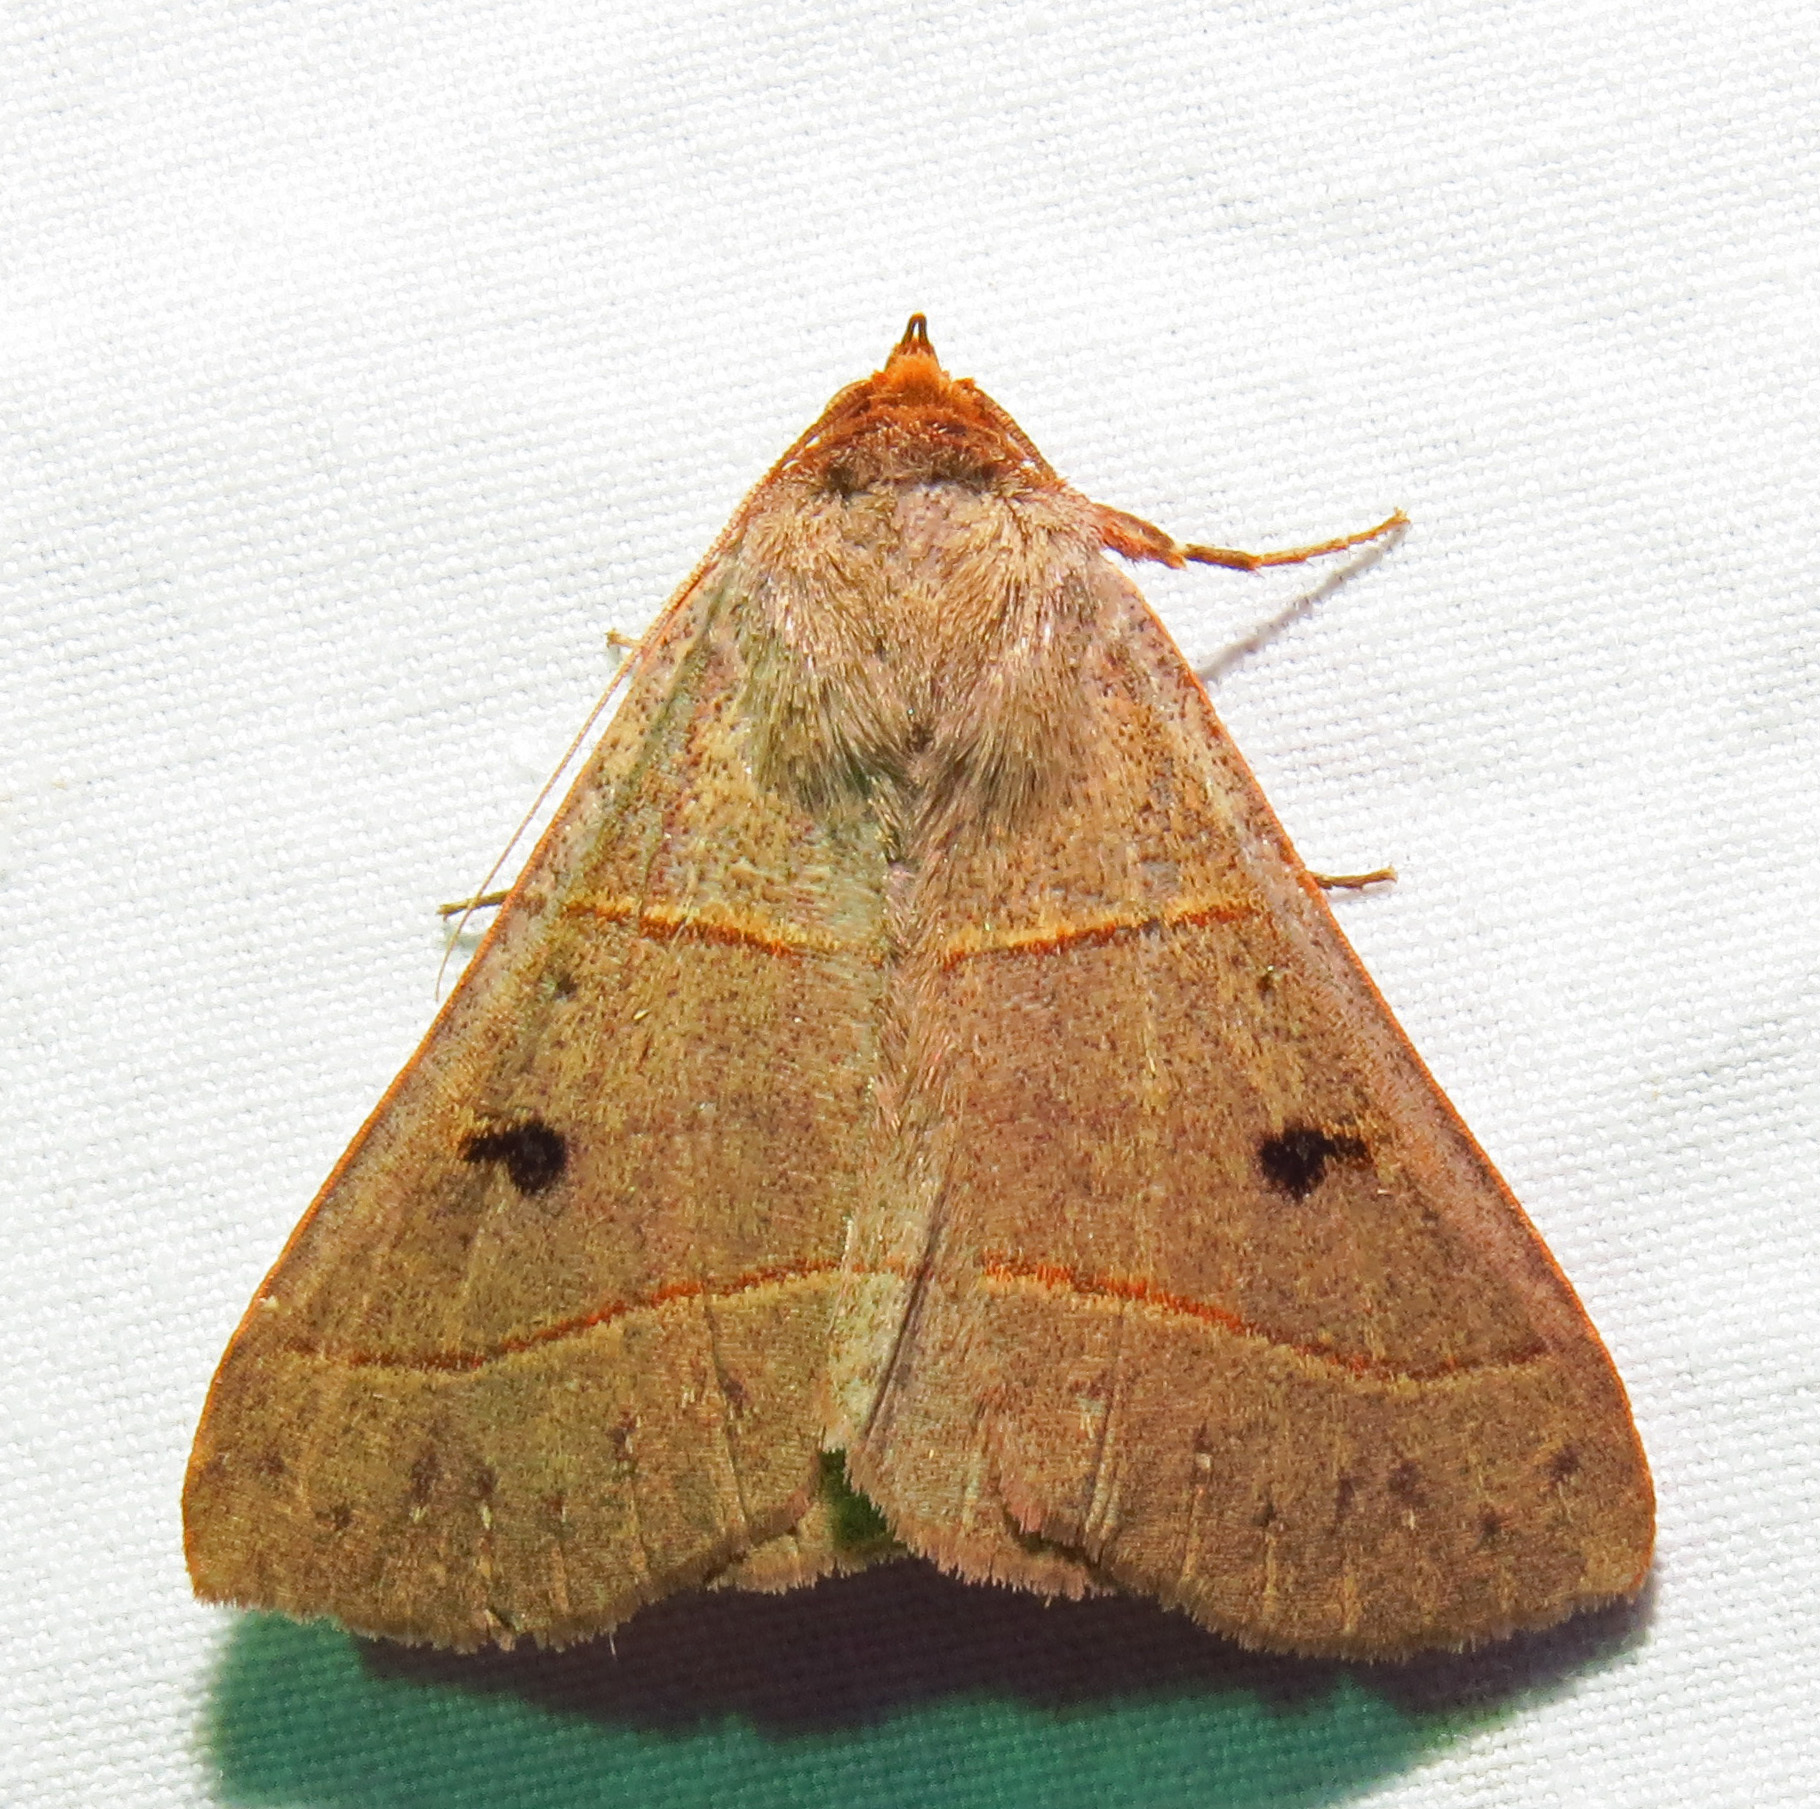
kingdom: Animalia
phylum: Arthropoda
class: Insecta
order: Lepidoptera
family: Erebidae
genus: Panopoda
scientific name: Panopoda rufimargo
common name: Red-lined panopoda moth
